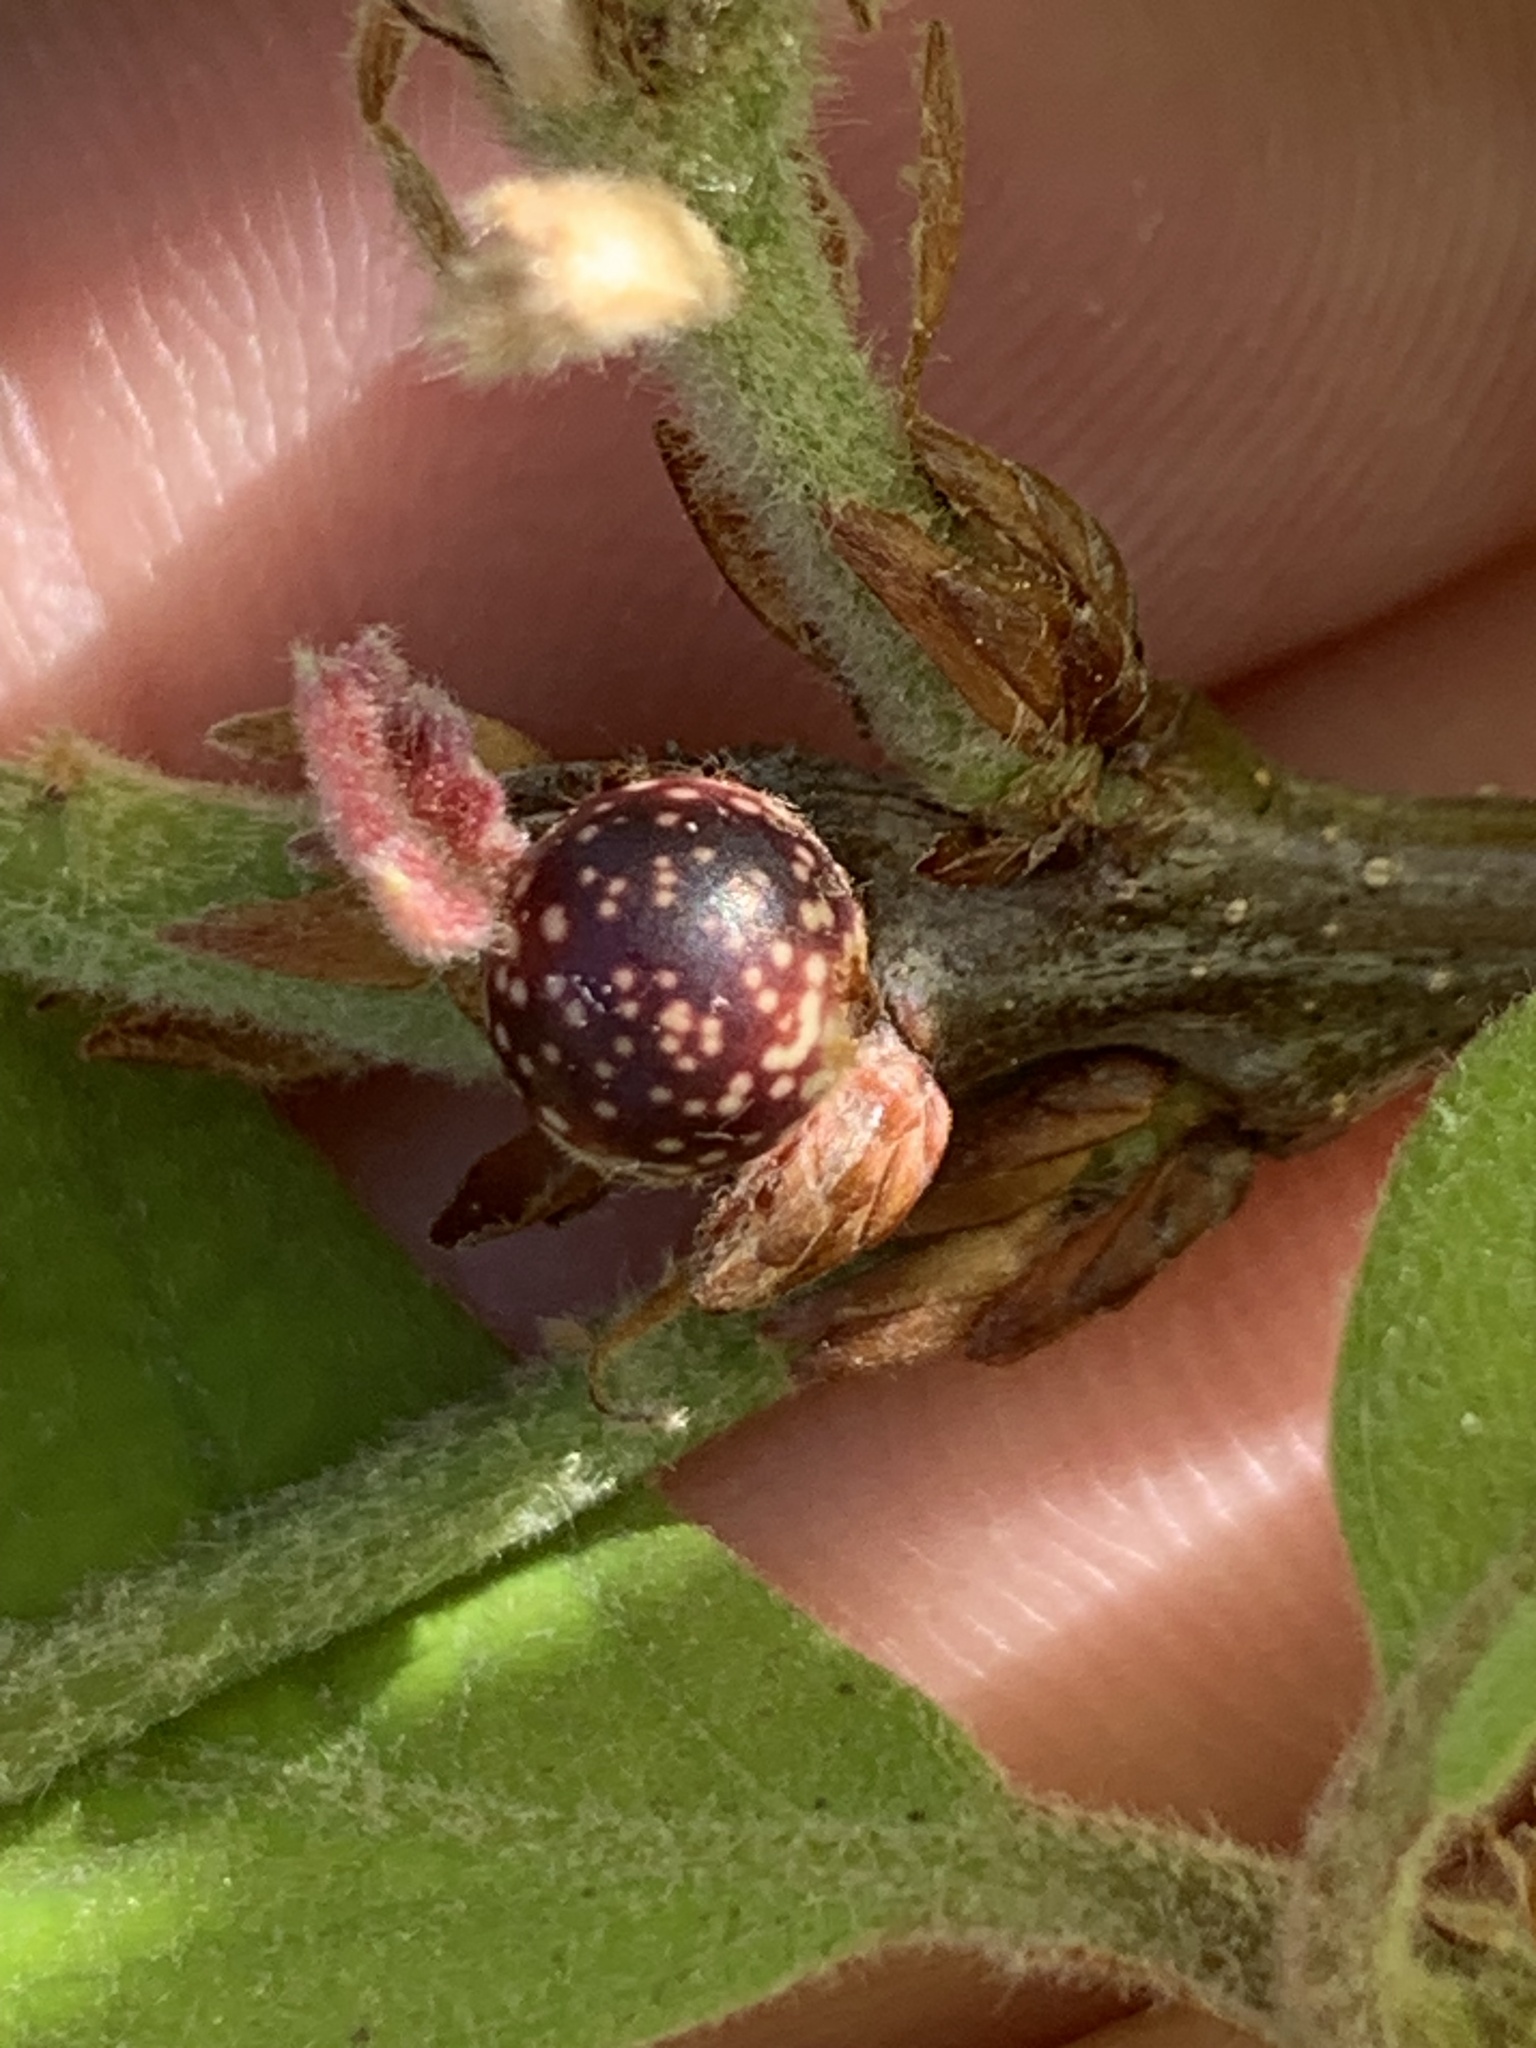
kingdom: Animalia
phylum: Arthropoda
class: Insecta
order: Hymenoptera
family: Cynipidae
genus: Andricus
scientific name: Andricus
